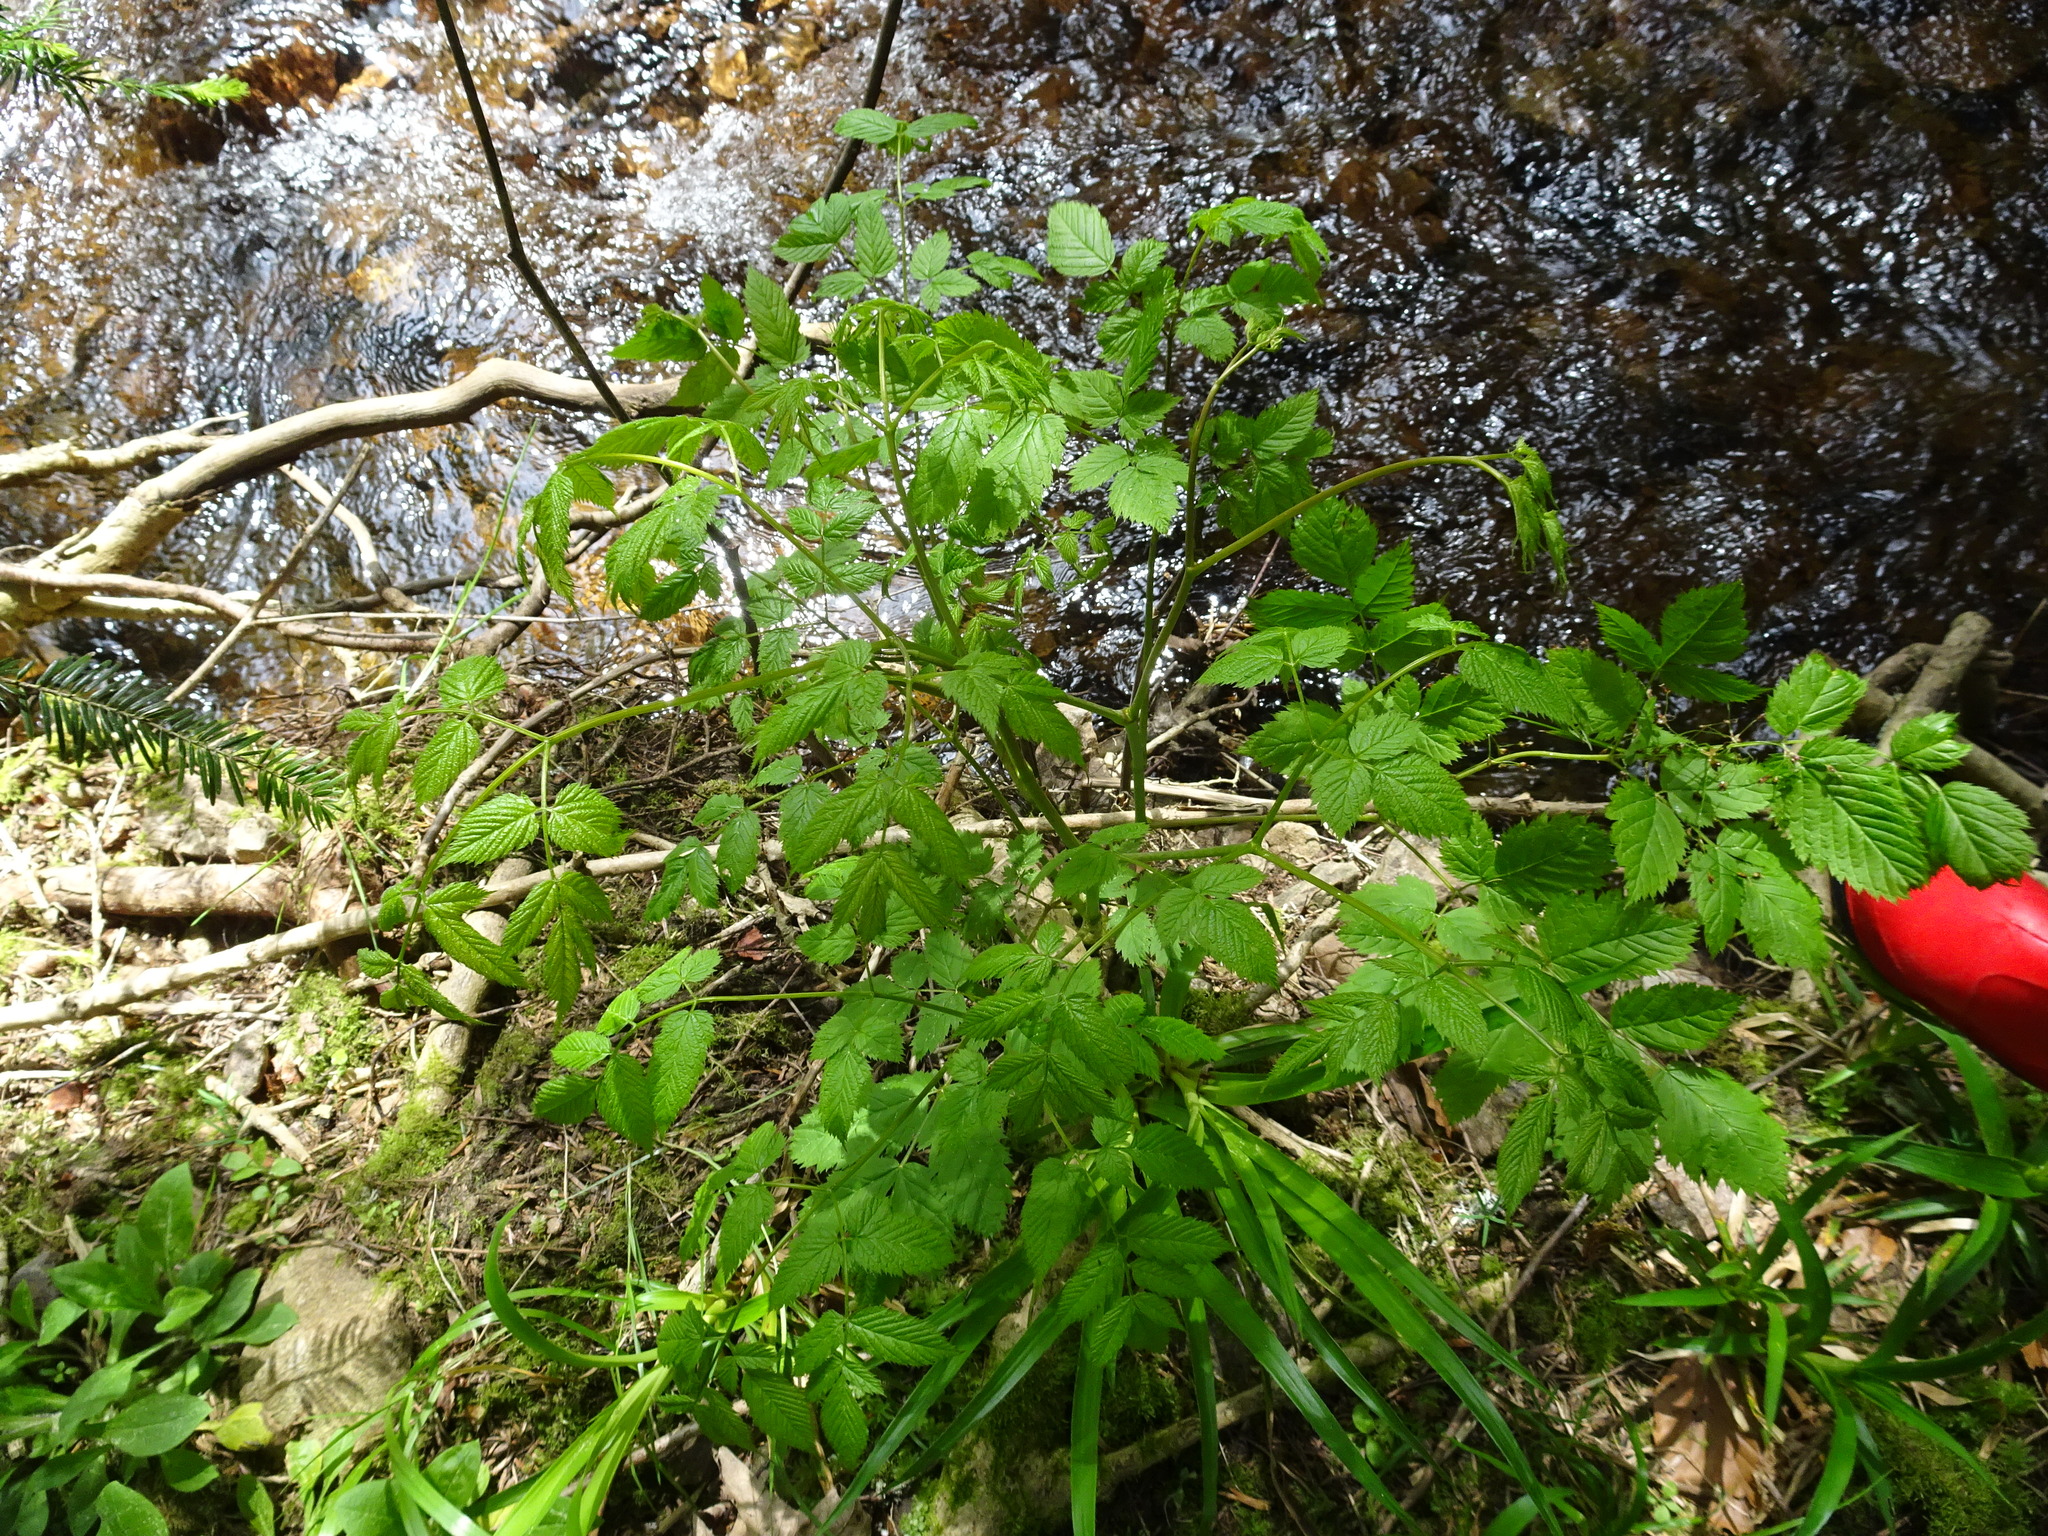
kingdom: Plantae
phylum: Tracheophyta
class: Magnoliopsida
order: Rosales
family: Rosaceae
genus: Aruncus
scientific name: Aruncus dioicus
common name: Buck's-beard
